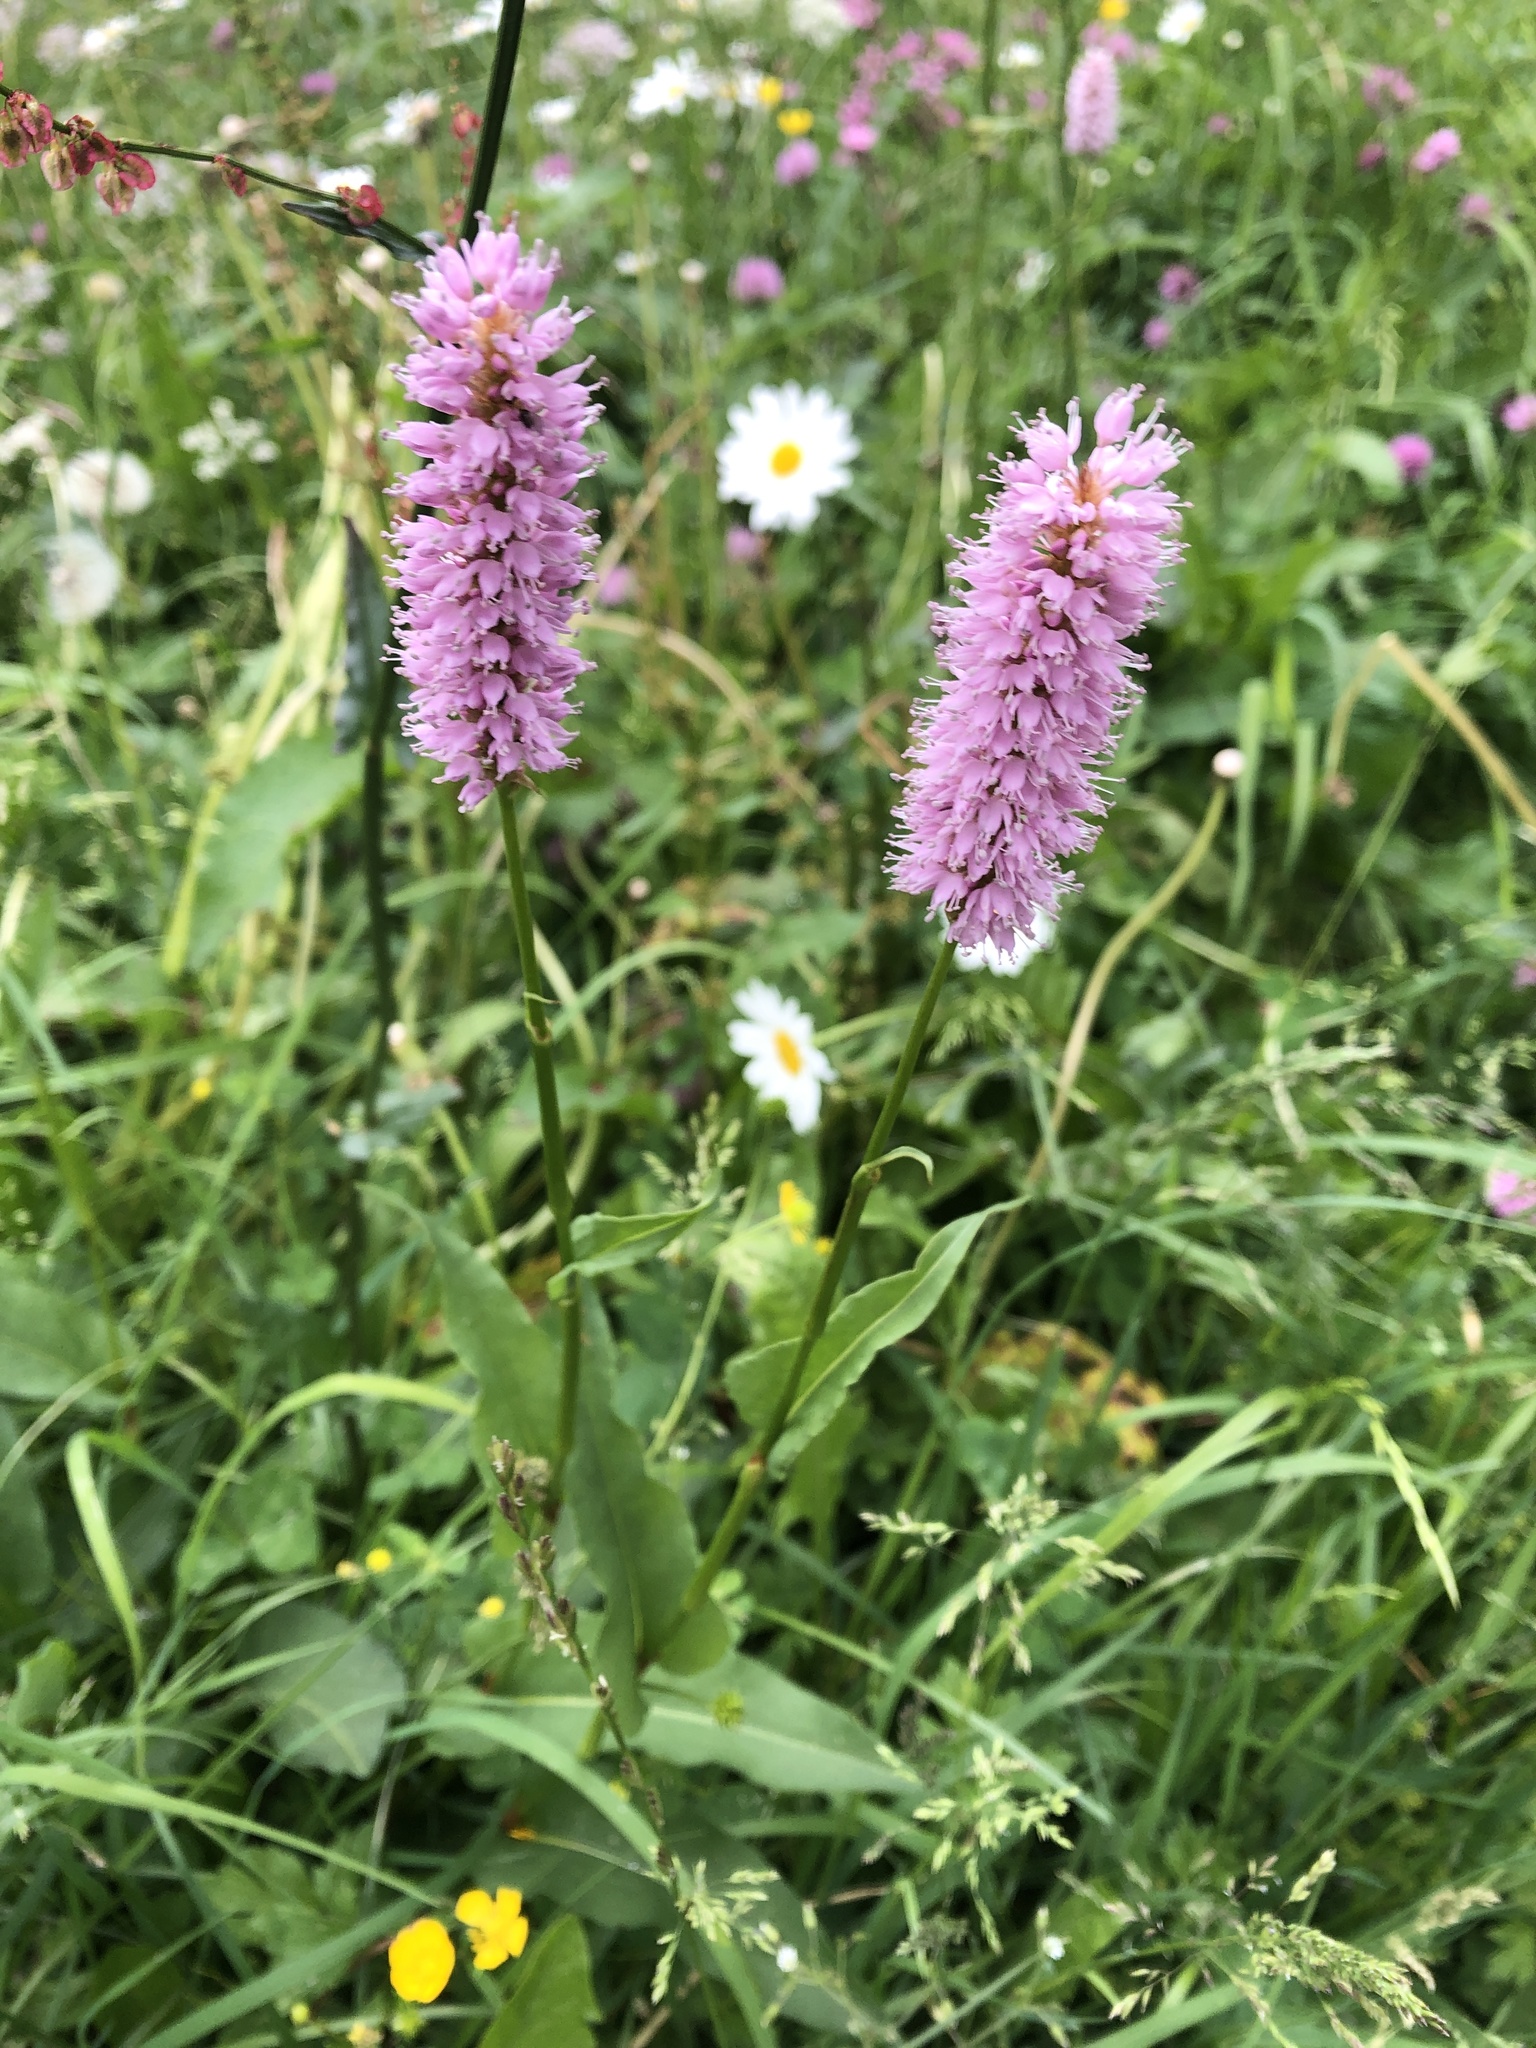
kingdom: Plantae
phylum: Tracheophyta
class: Magnoliopsida
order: Caryophyllales
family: Polygonaceae
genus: Bistorta
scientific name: Bistorta officinalis
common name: Common bistort
